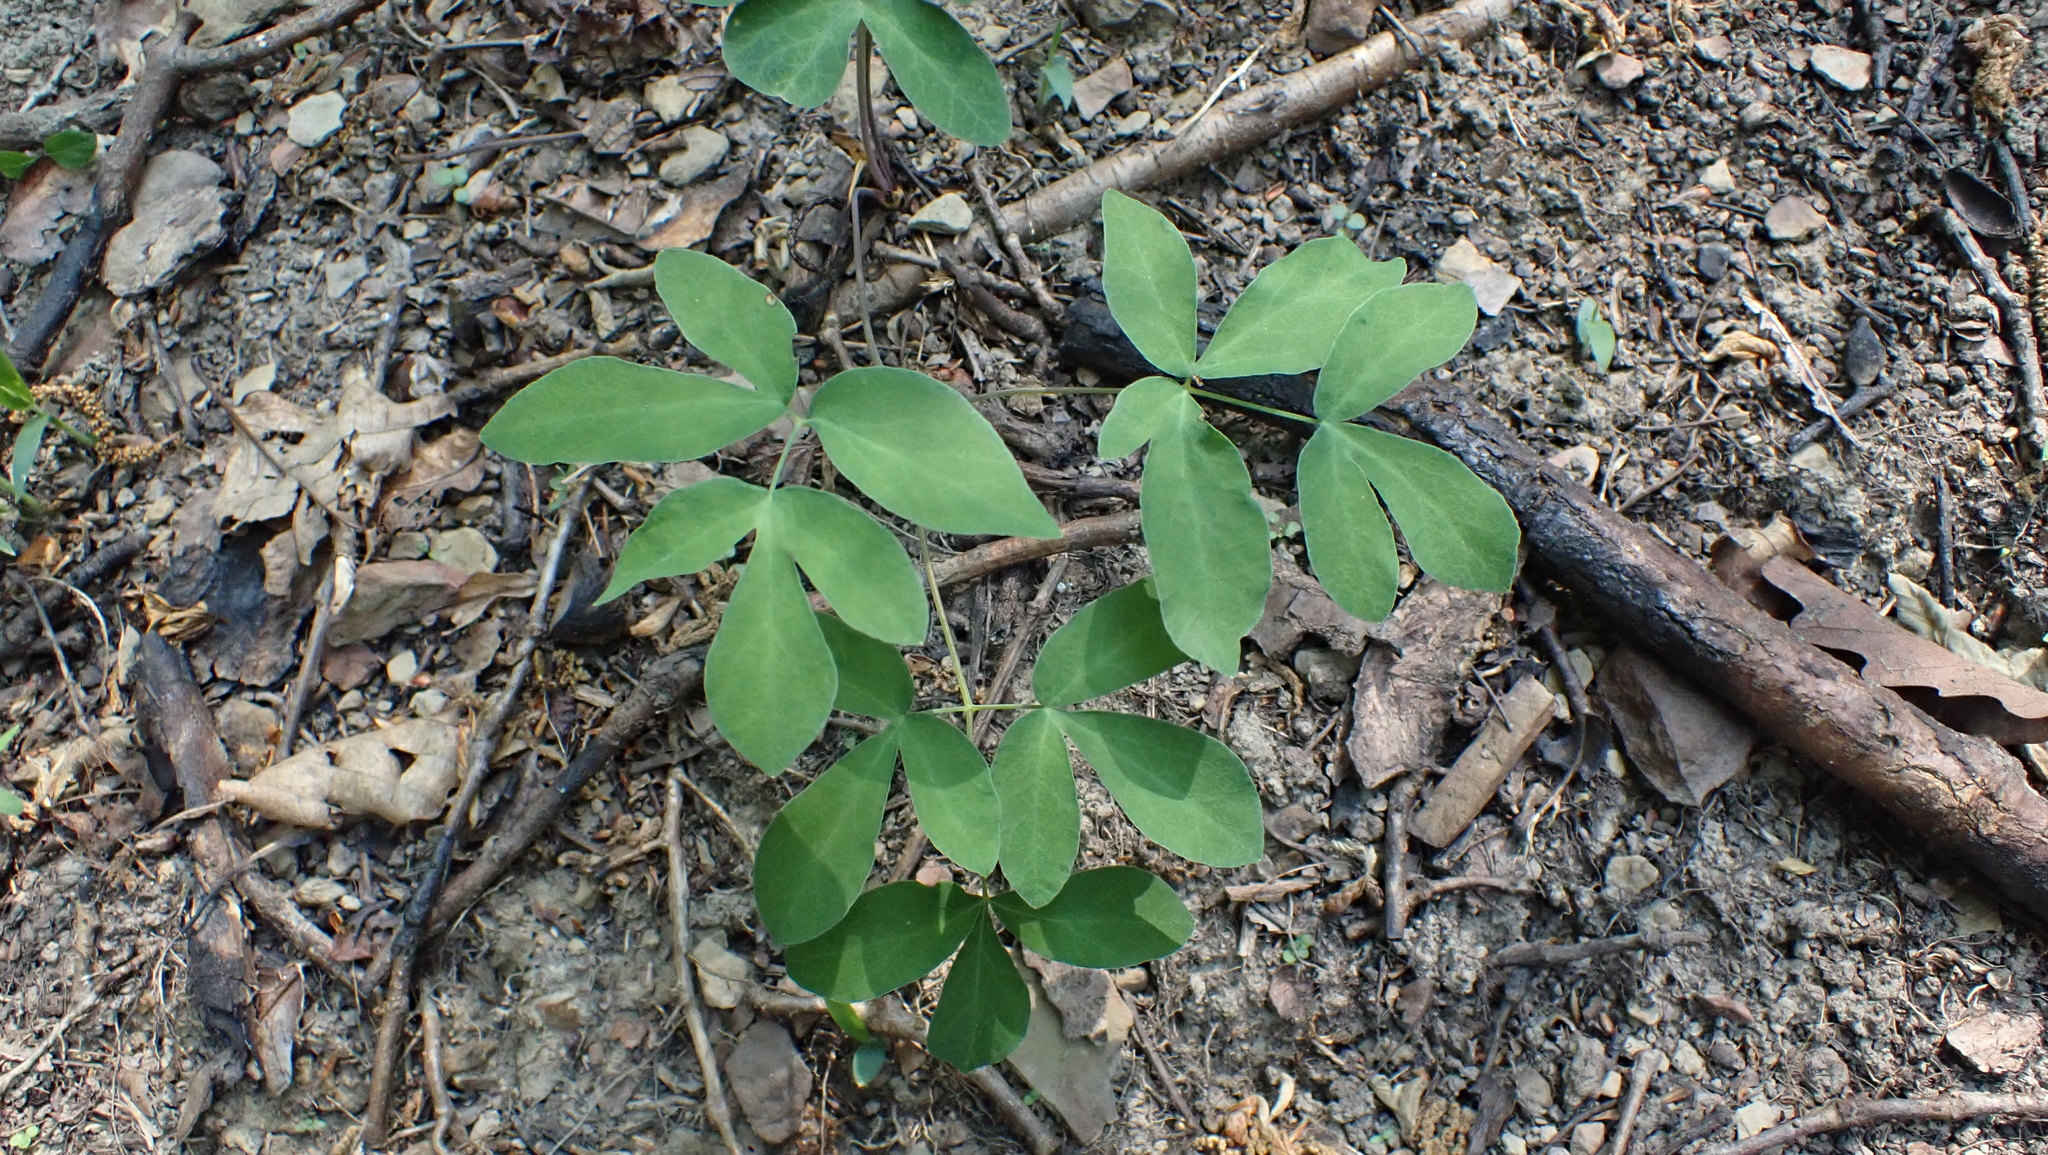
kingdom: Plantae
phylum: Tracheophyta
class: Magnoliopsida
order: Apiales
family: Apiaceae
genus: Taenidia
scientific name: Taenidia integerrima
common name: Golden alexander
